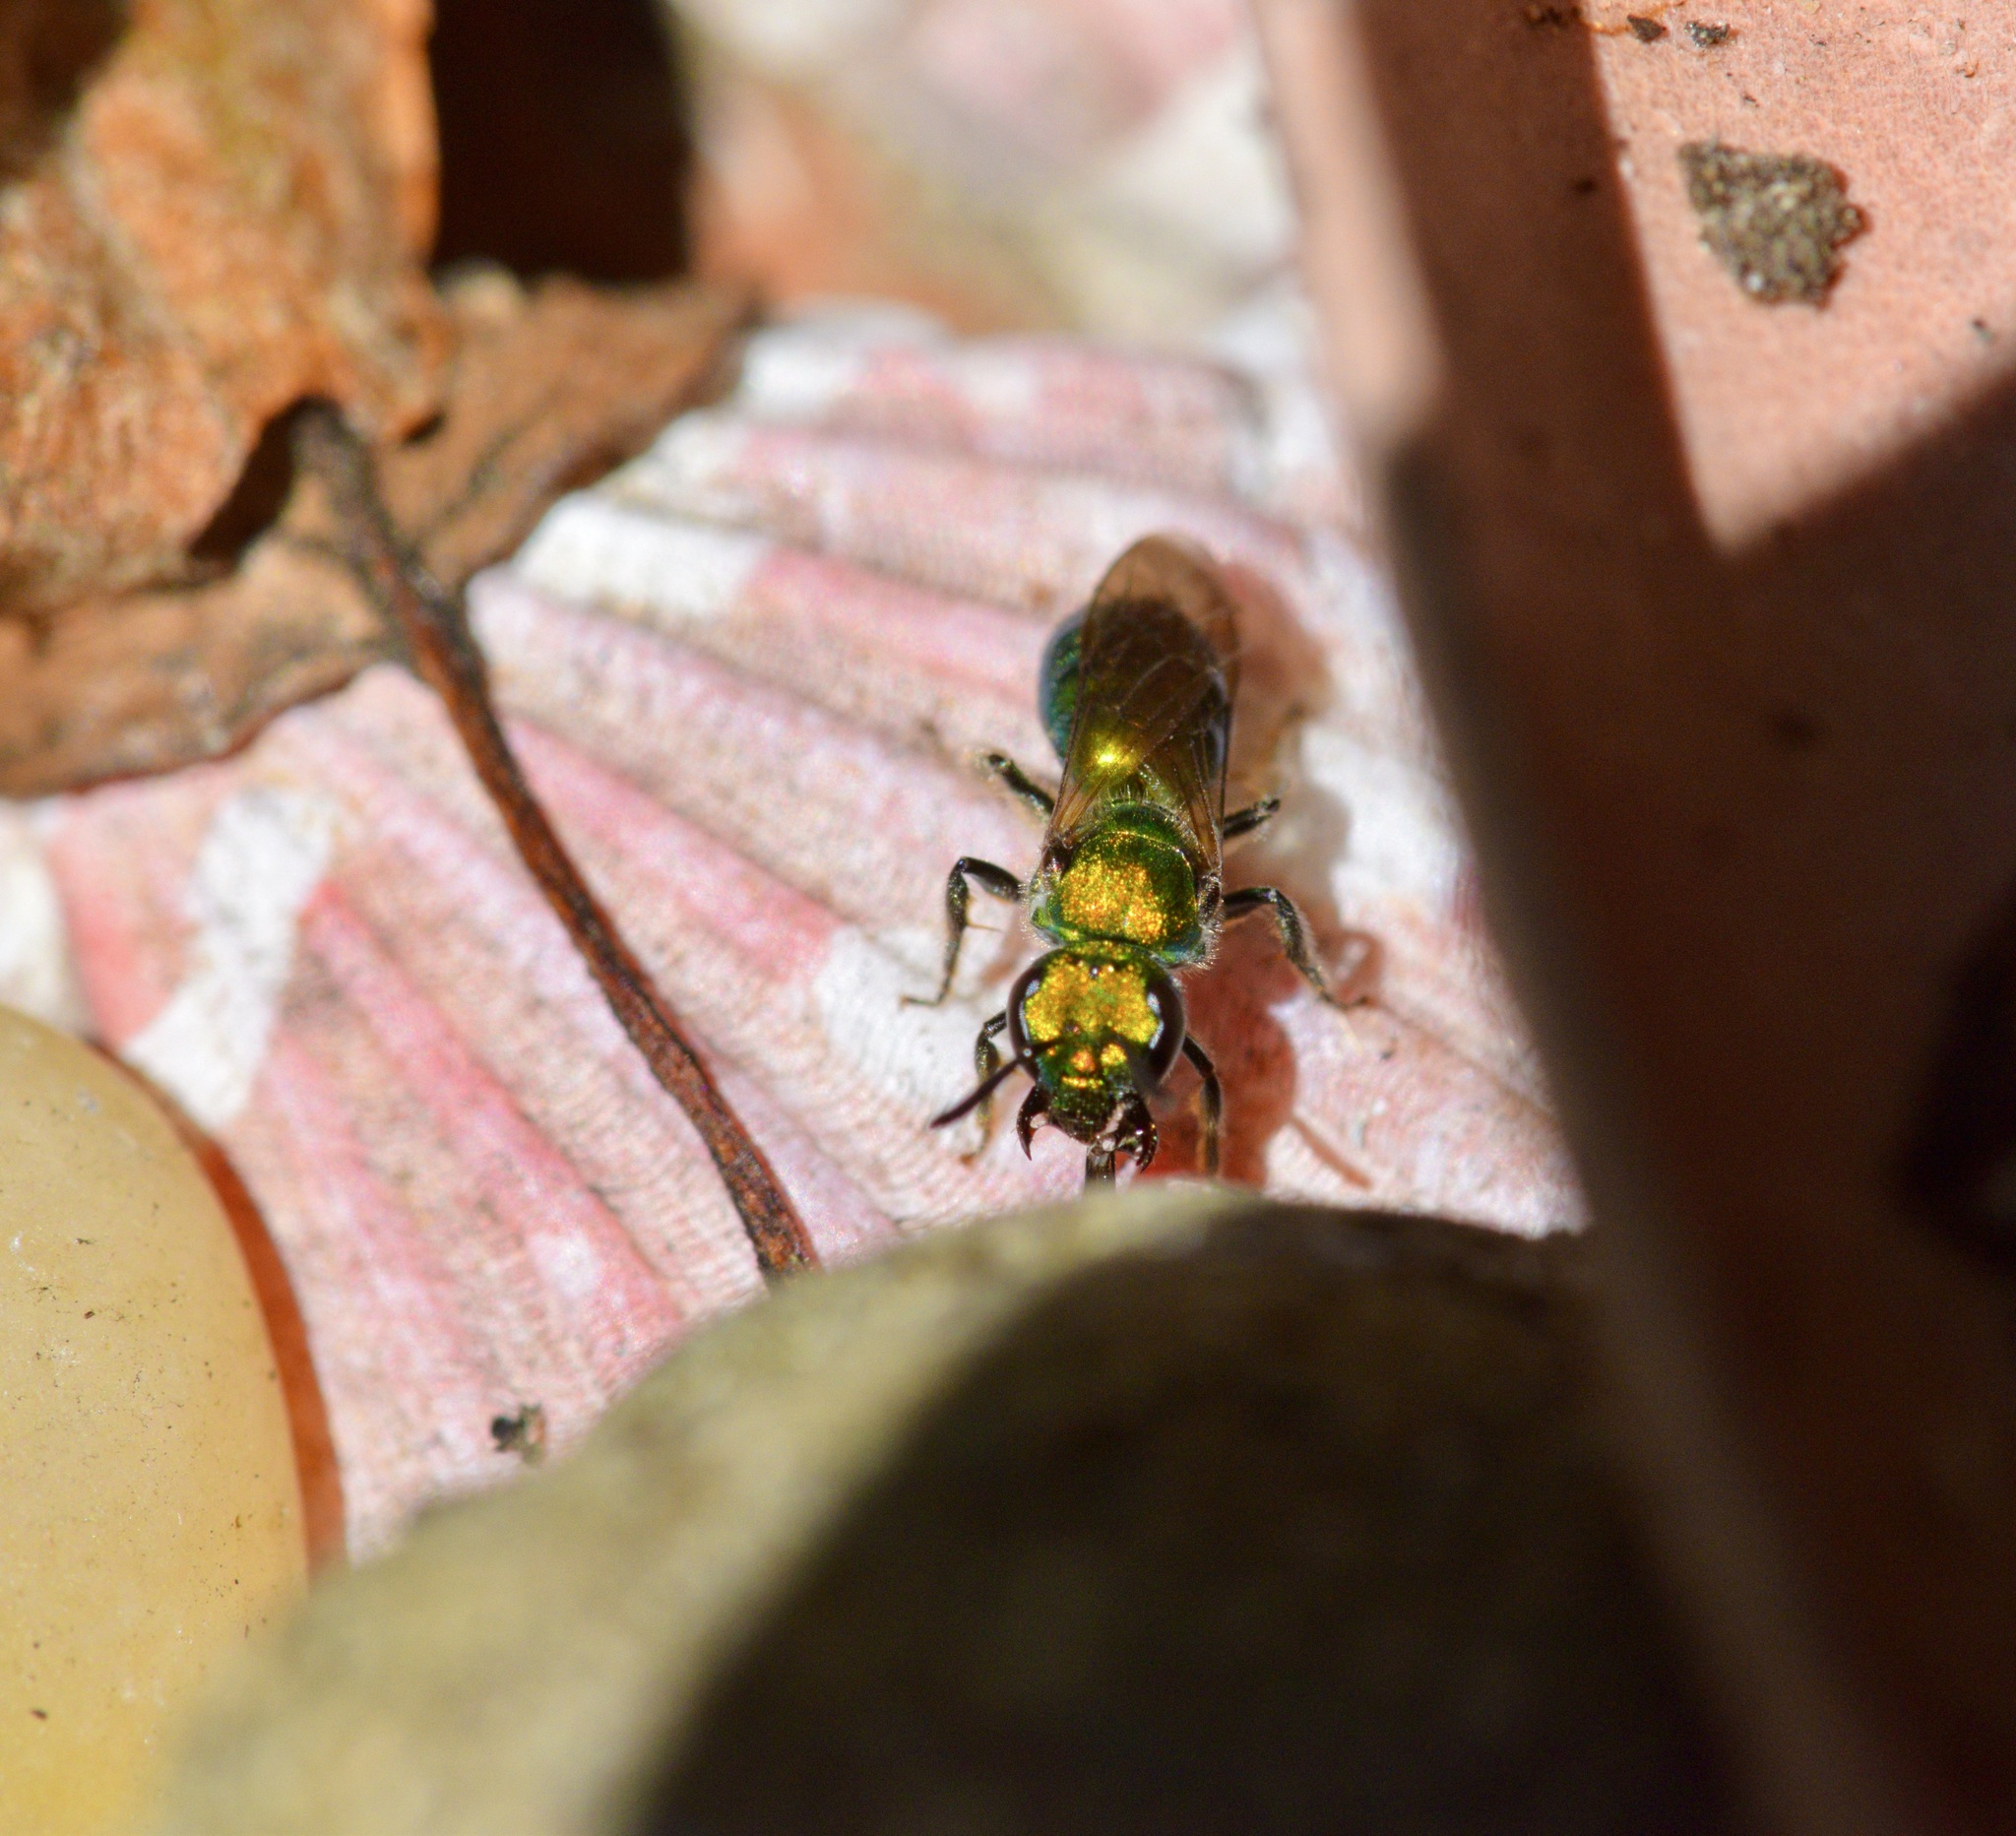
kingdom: Animalia
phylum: Arthropoda
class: Insecta
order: Hymenoptera
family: Halictidae
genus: Augochlora
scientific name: Augochlora pura
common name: Pure green sweat bee
